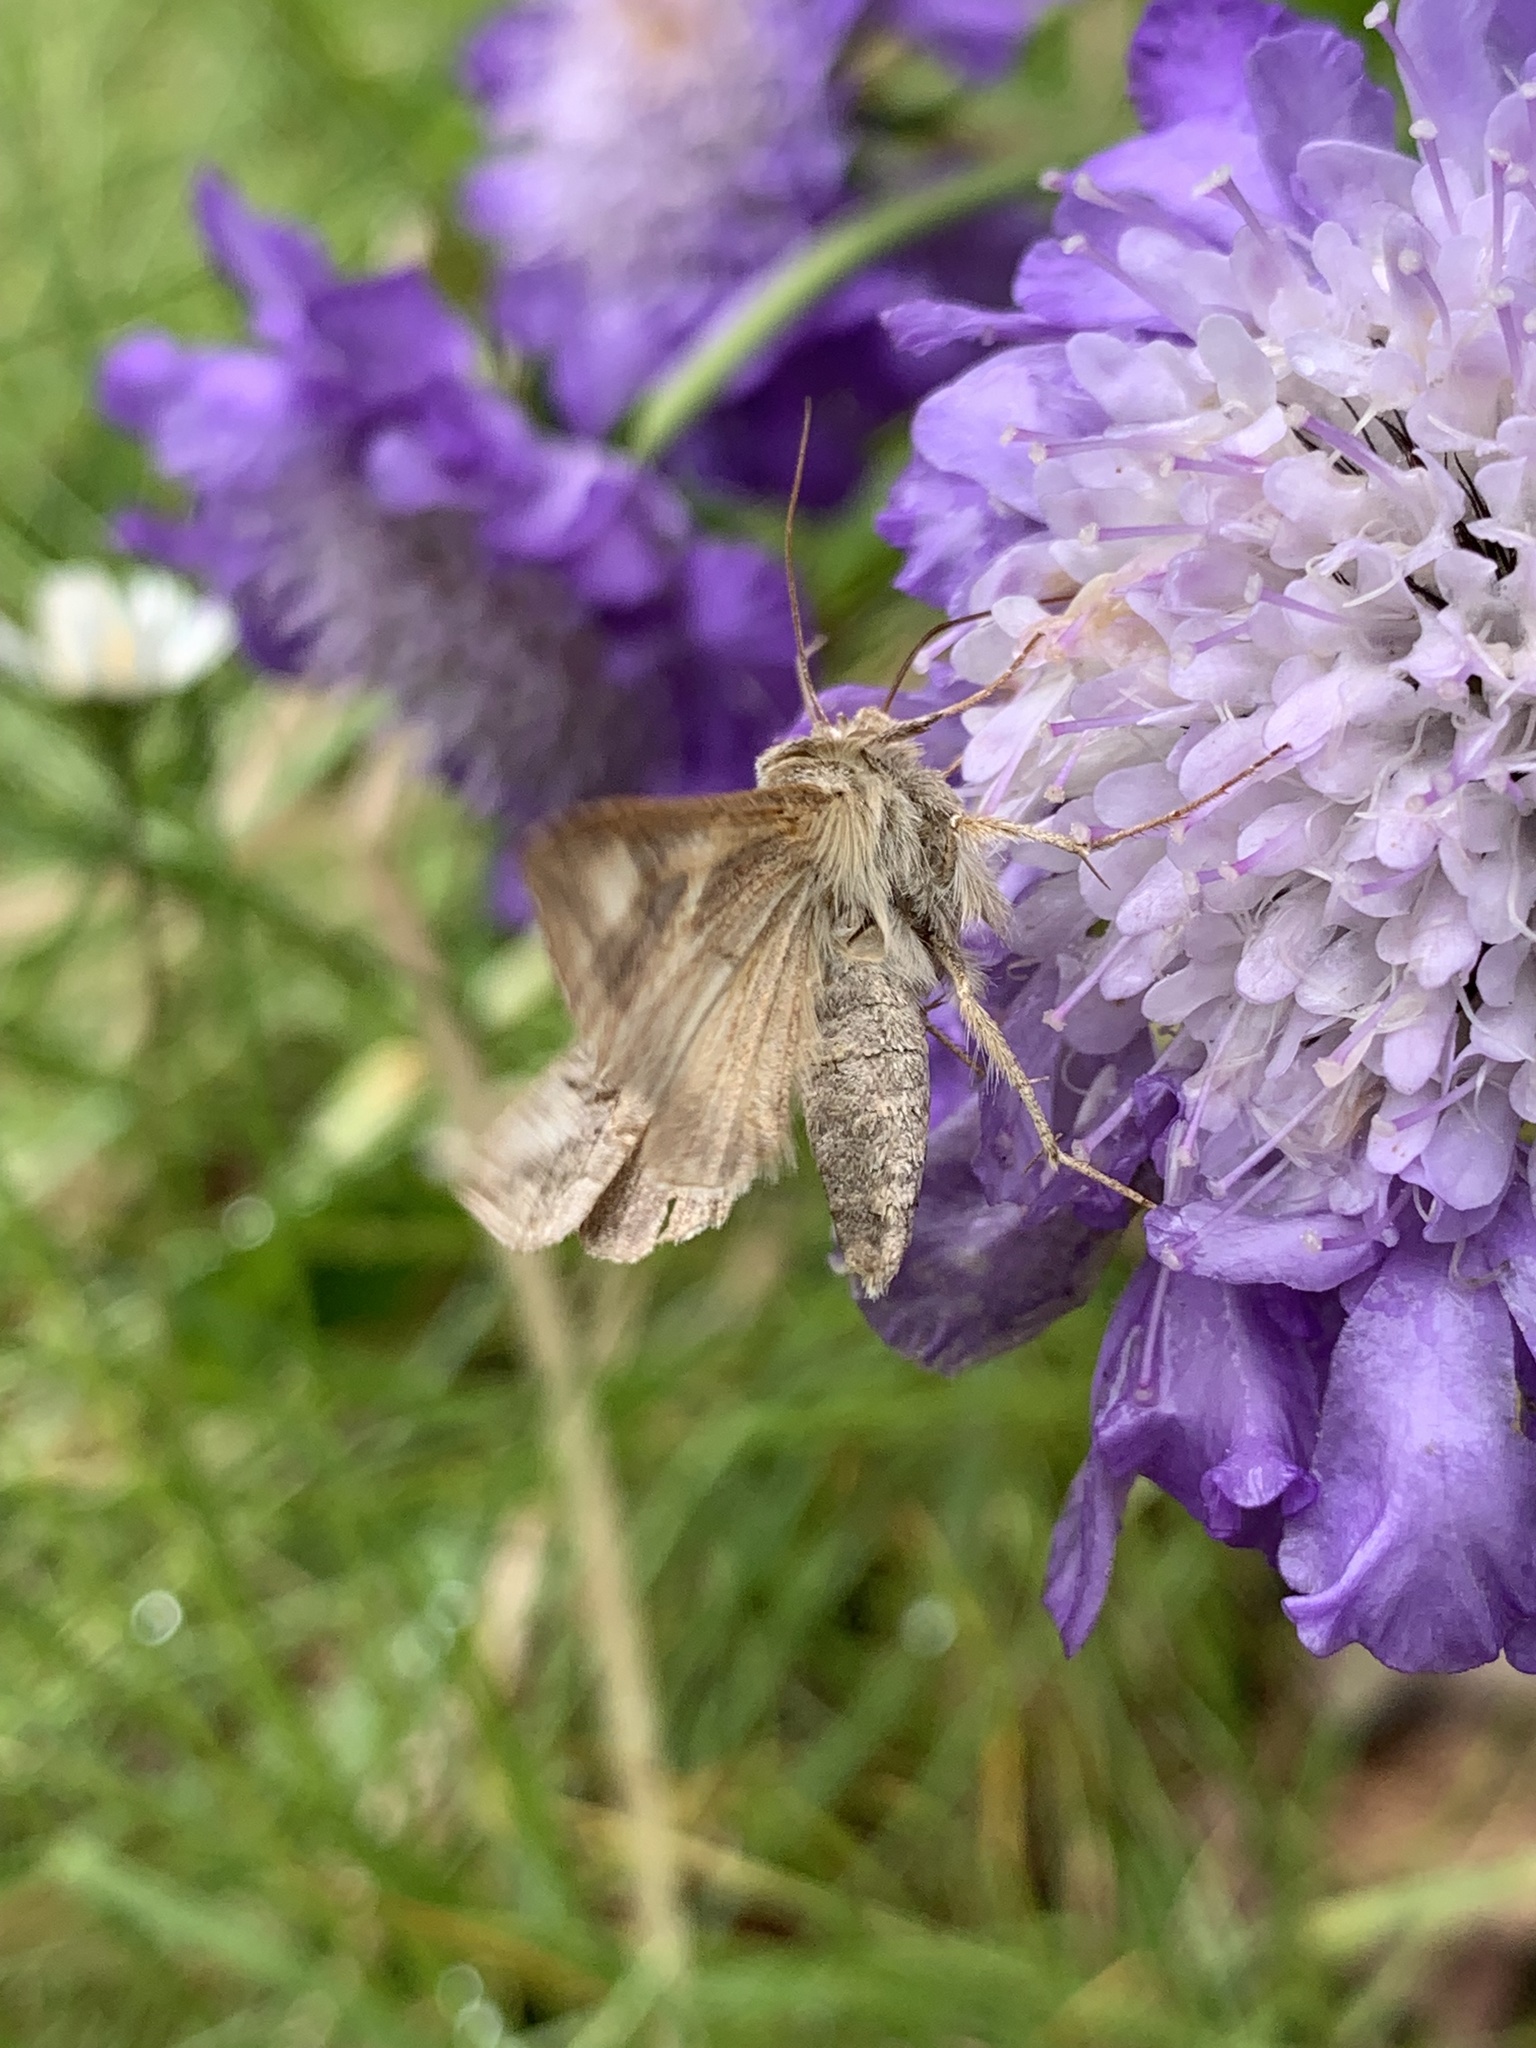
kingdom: Animalia
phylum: Arthropoda
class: Insecta
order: Lepidoptera
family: Noctuidae
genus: Autographa
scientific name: Autographa gamma
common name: Silver y
